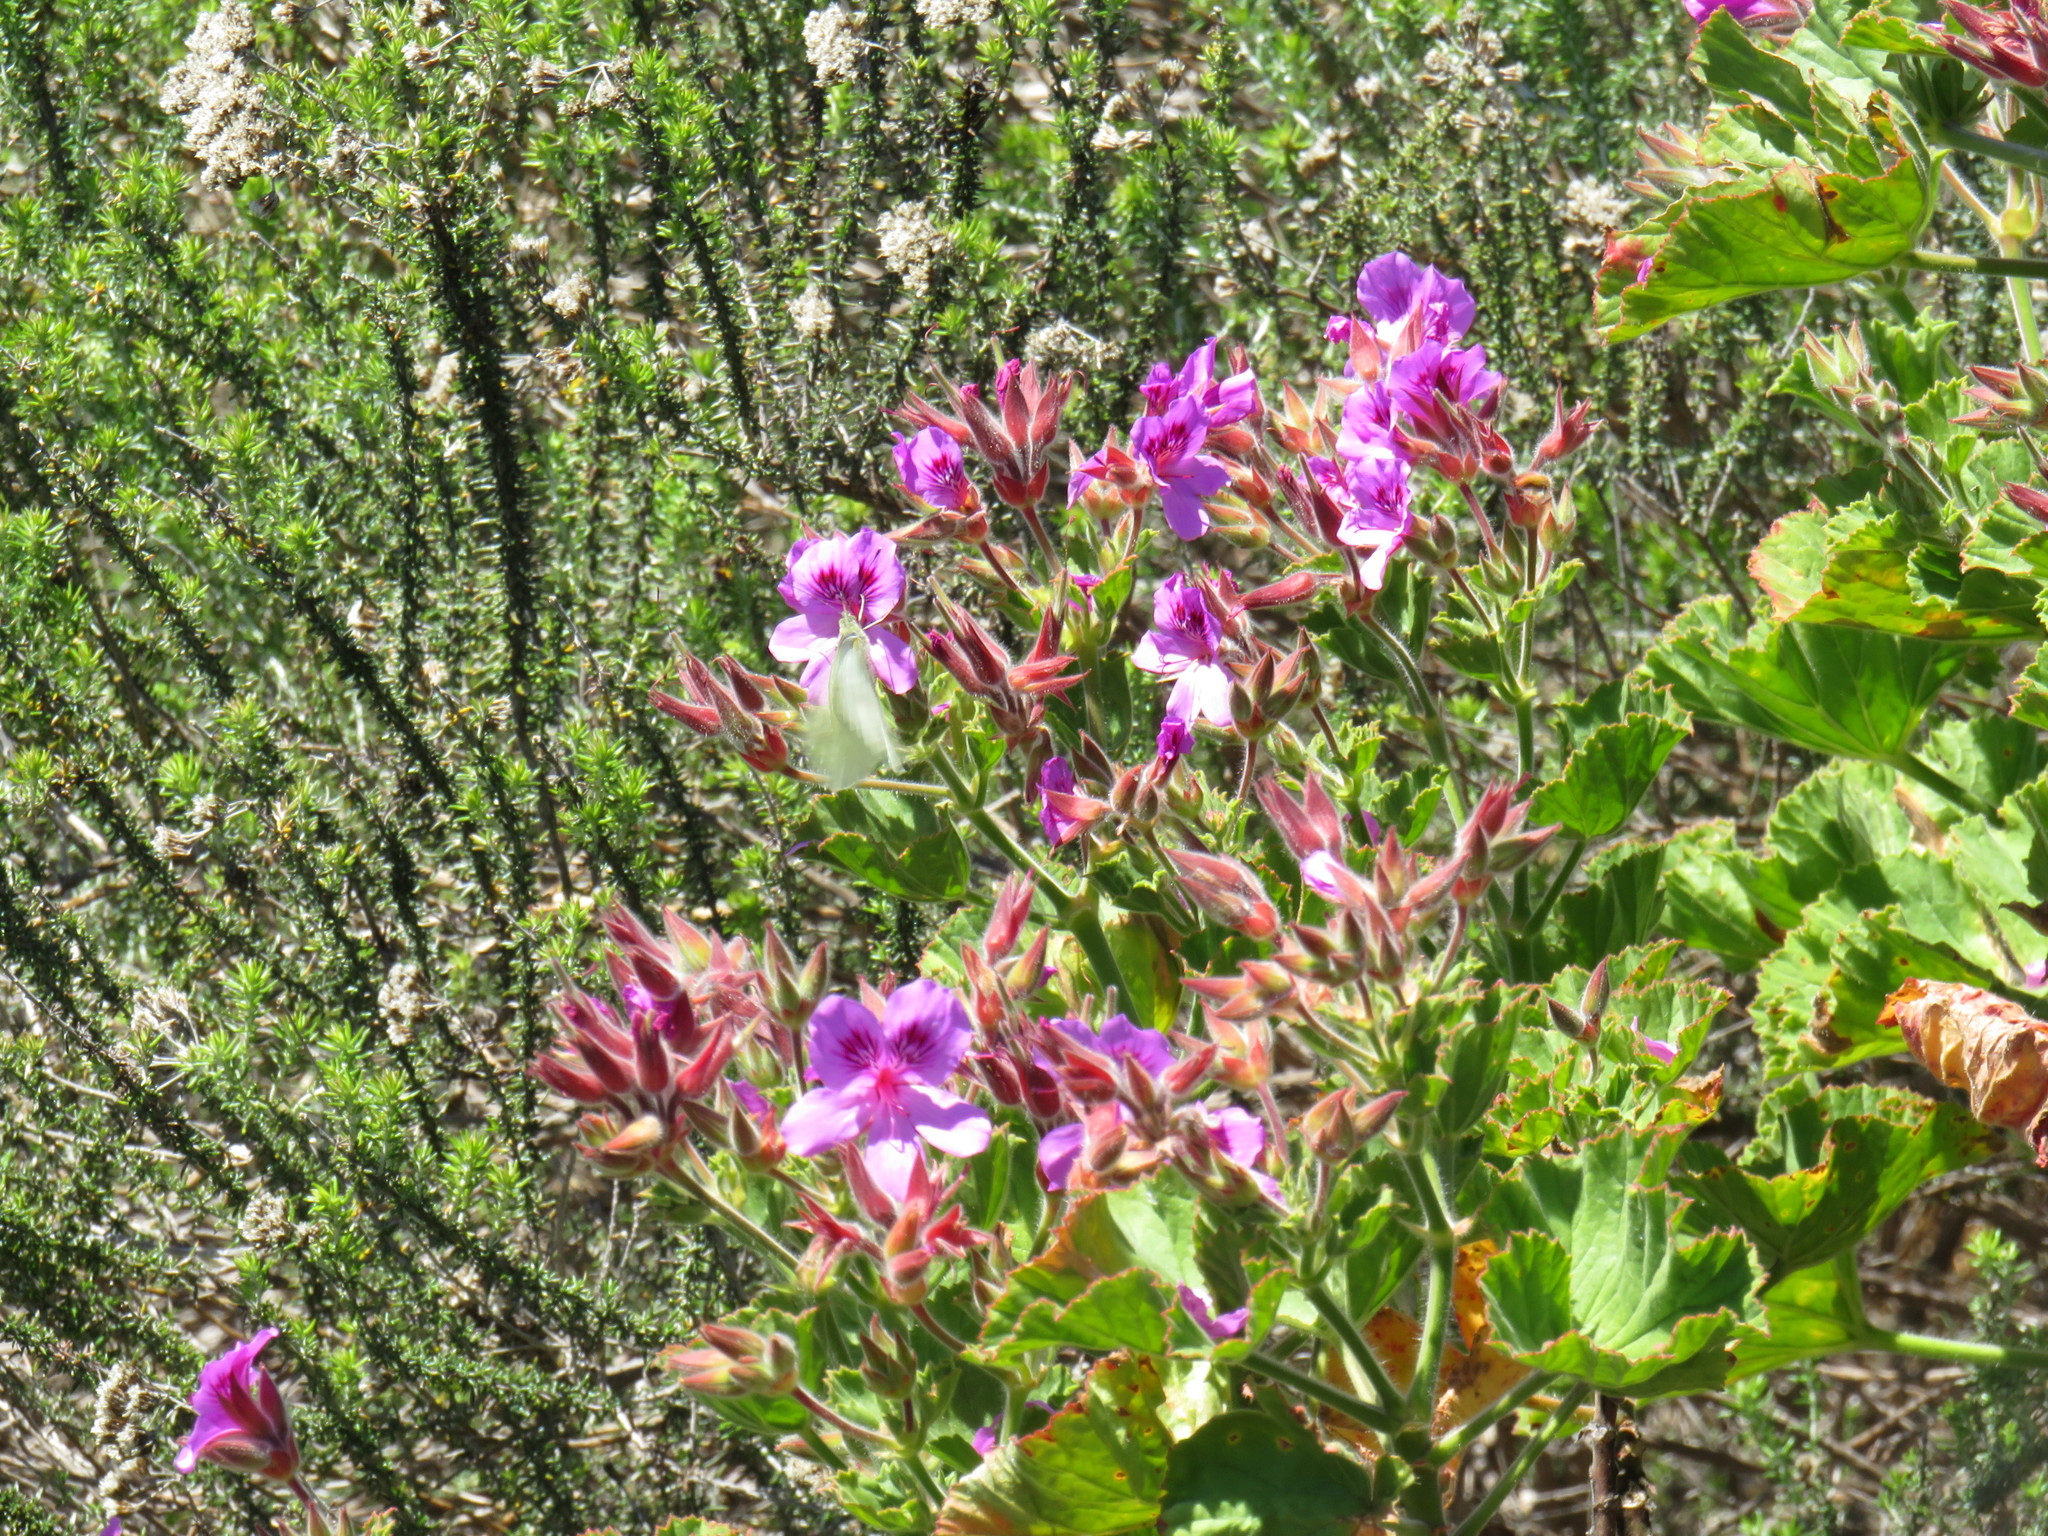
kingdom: Plantae
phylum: Tracheophyta
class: Magnoliopsida
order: Geraniales
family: Geraniaceae
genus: Pelargonium
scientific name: Pelargonium cucullatum
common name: Tree pelargonium
